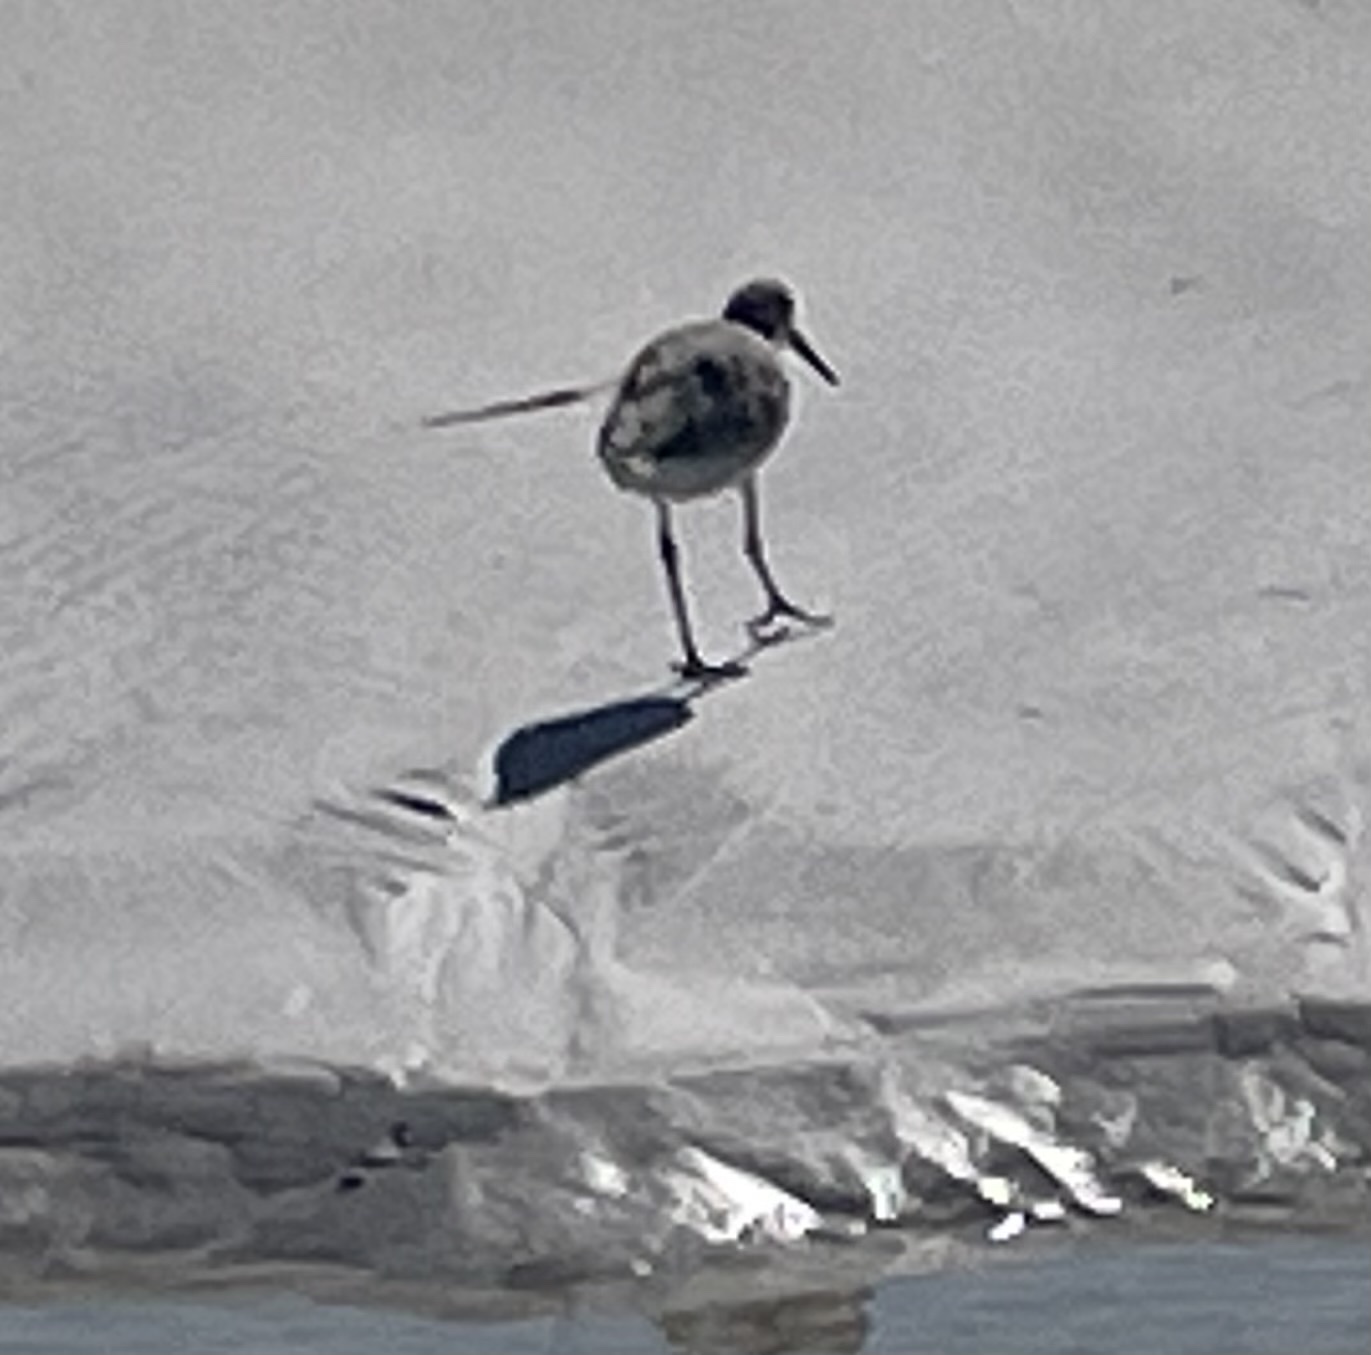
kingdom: Animalia
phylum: Chordata
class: Aves
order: Charadriiformes
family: Scolopacidae
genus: Tringa
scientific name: Tringa semipalmata
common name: Willet
